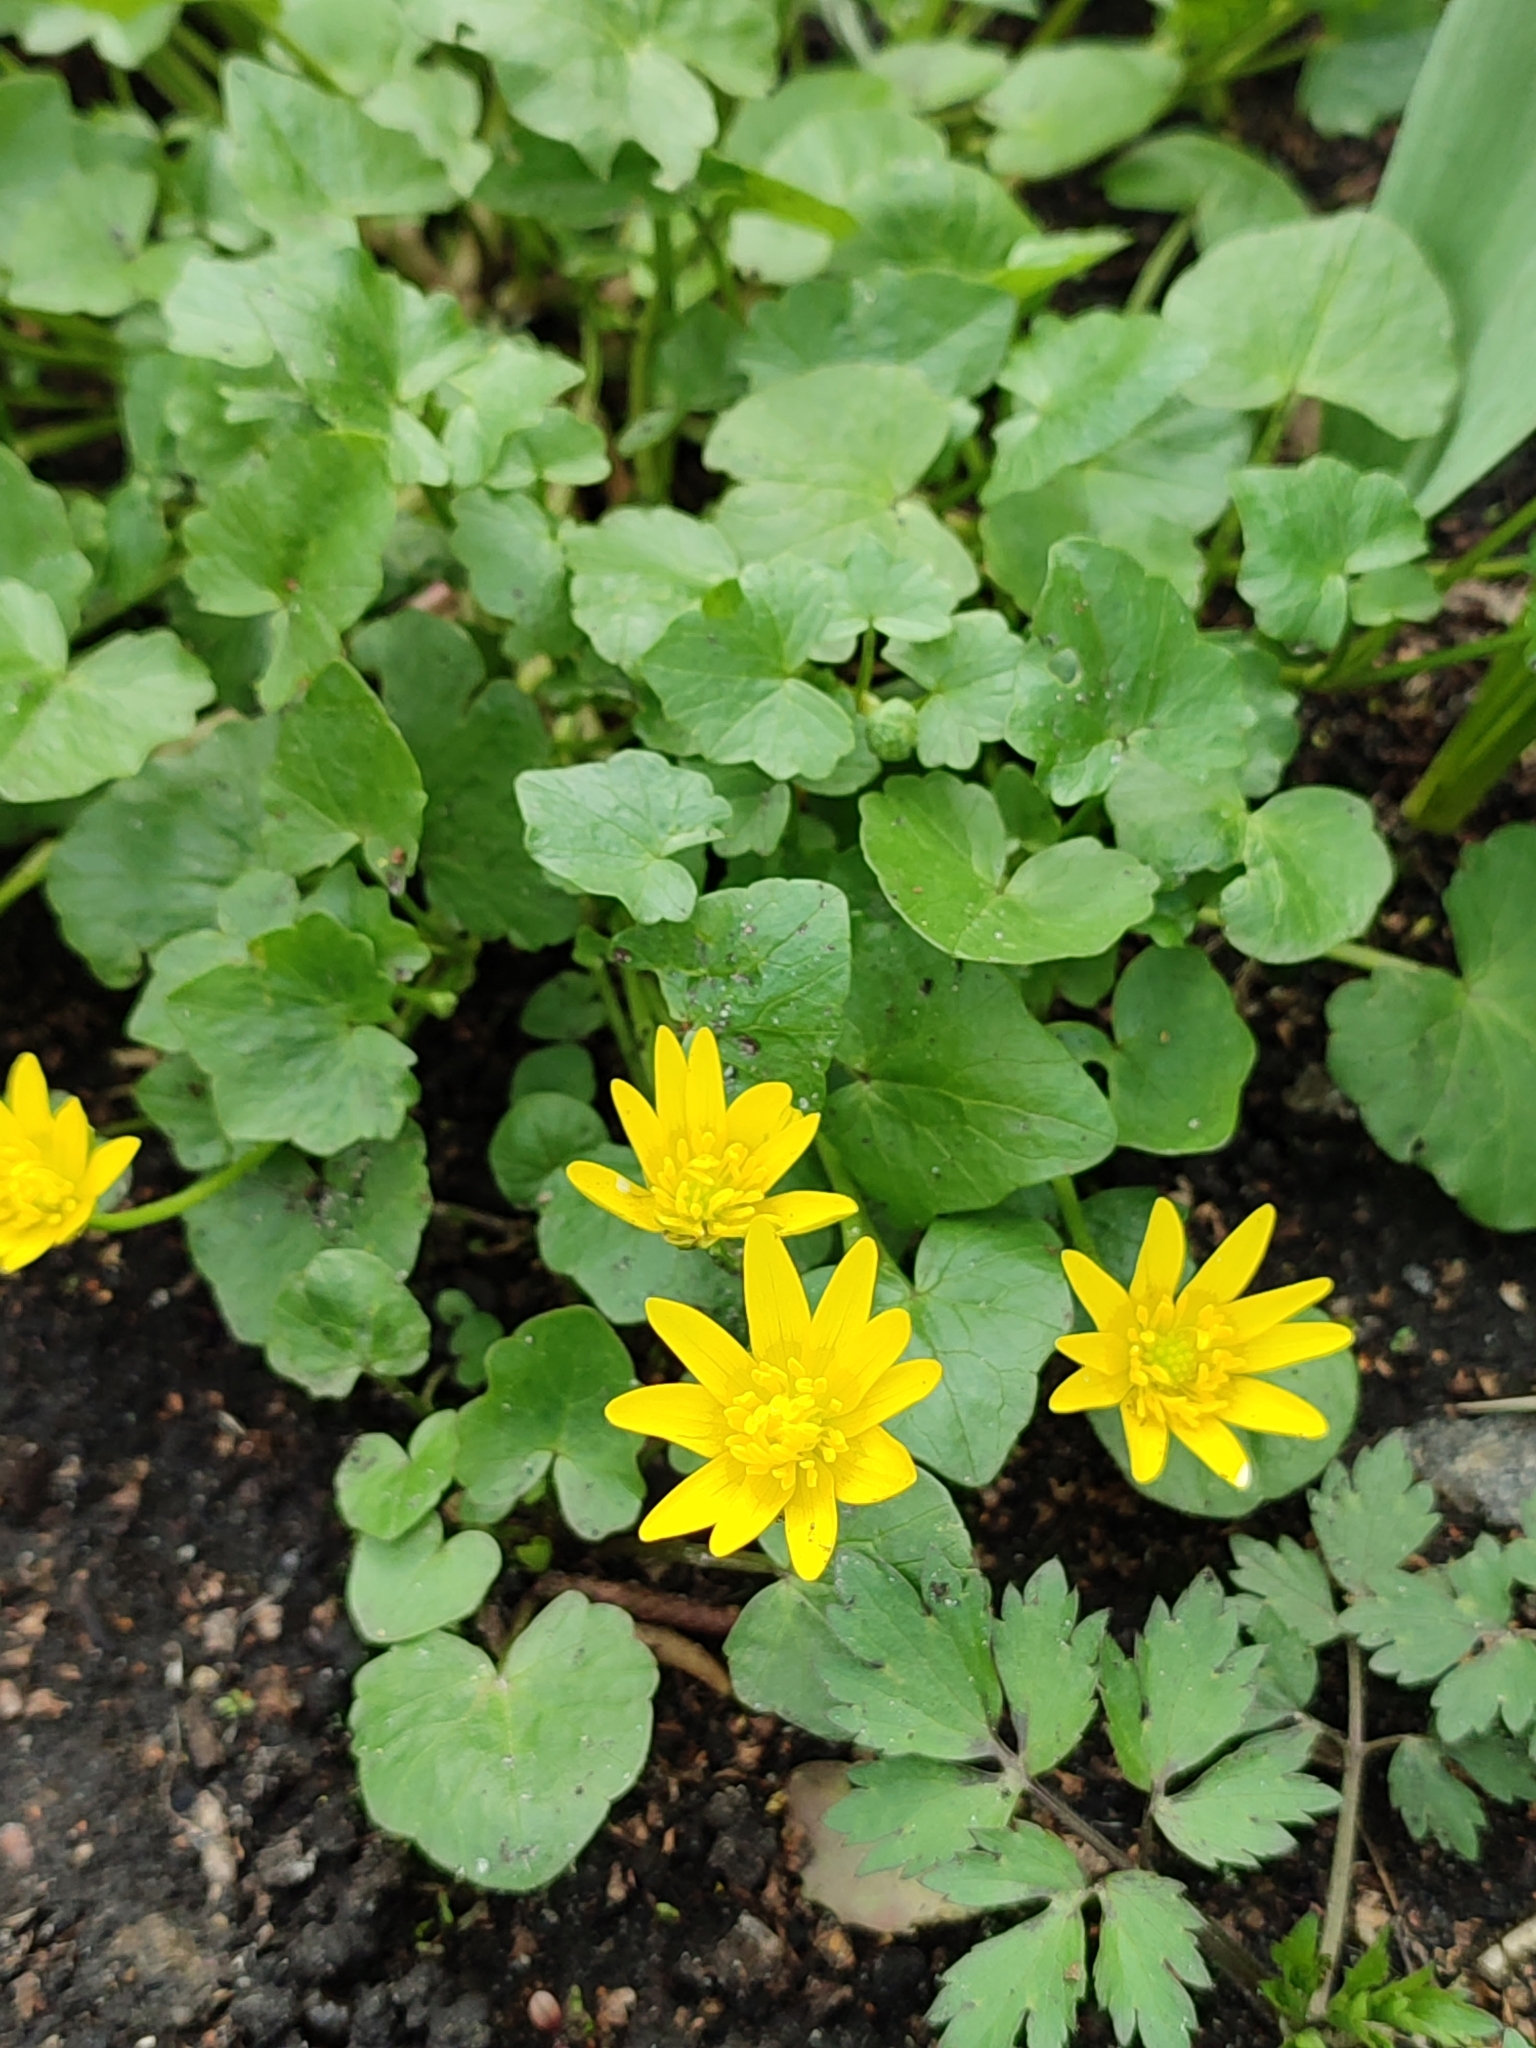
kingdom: Plantae
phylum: Tracheophyta
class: Magnoliopsida
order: Ranunculales
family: Ranunculaceae
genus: Ficaria
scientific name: Ficaria verna
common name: Lesser celandine
